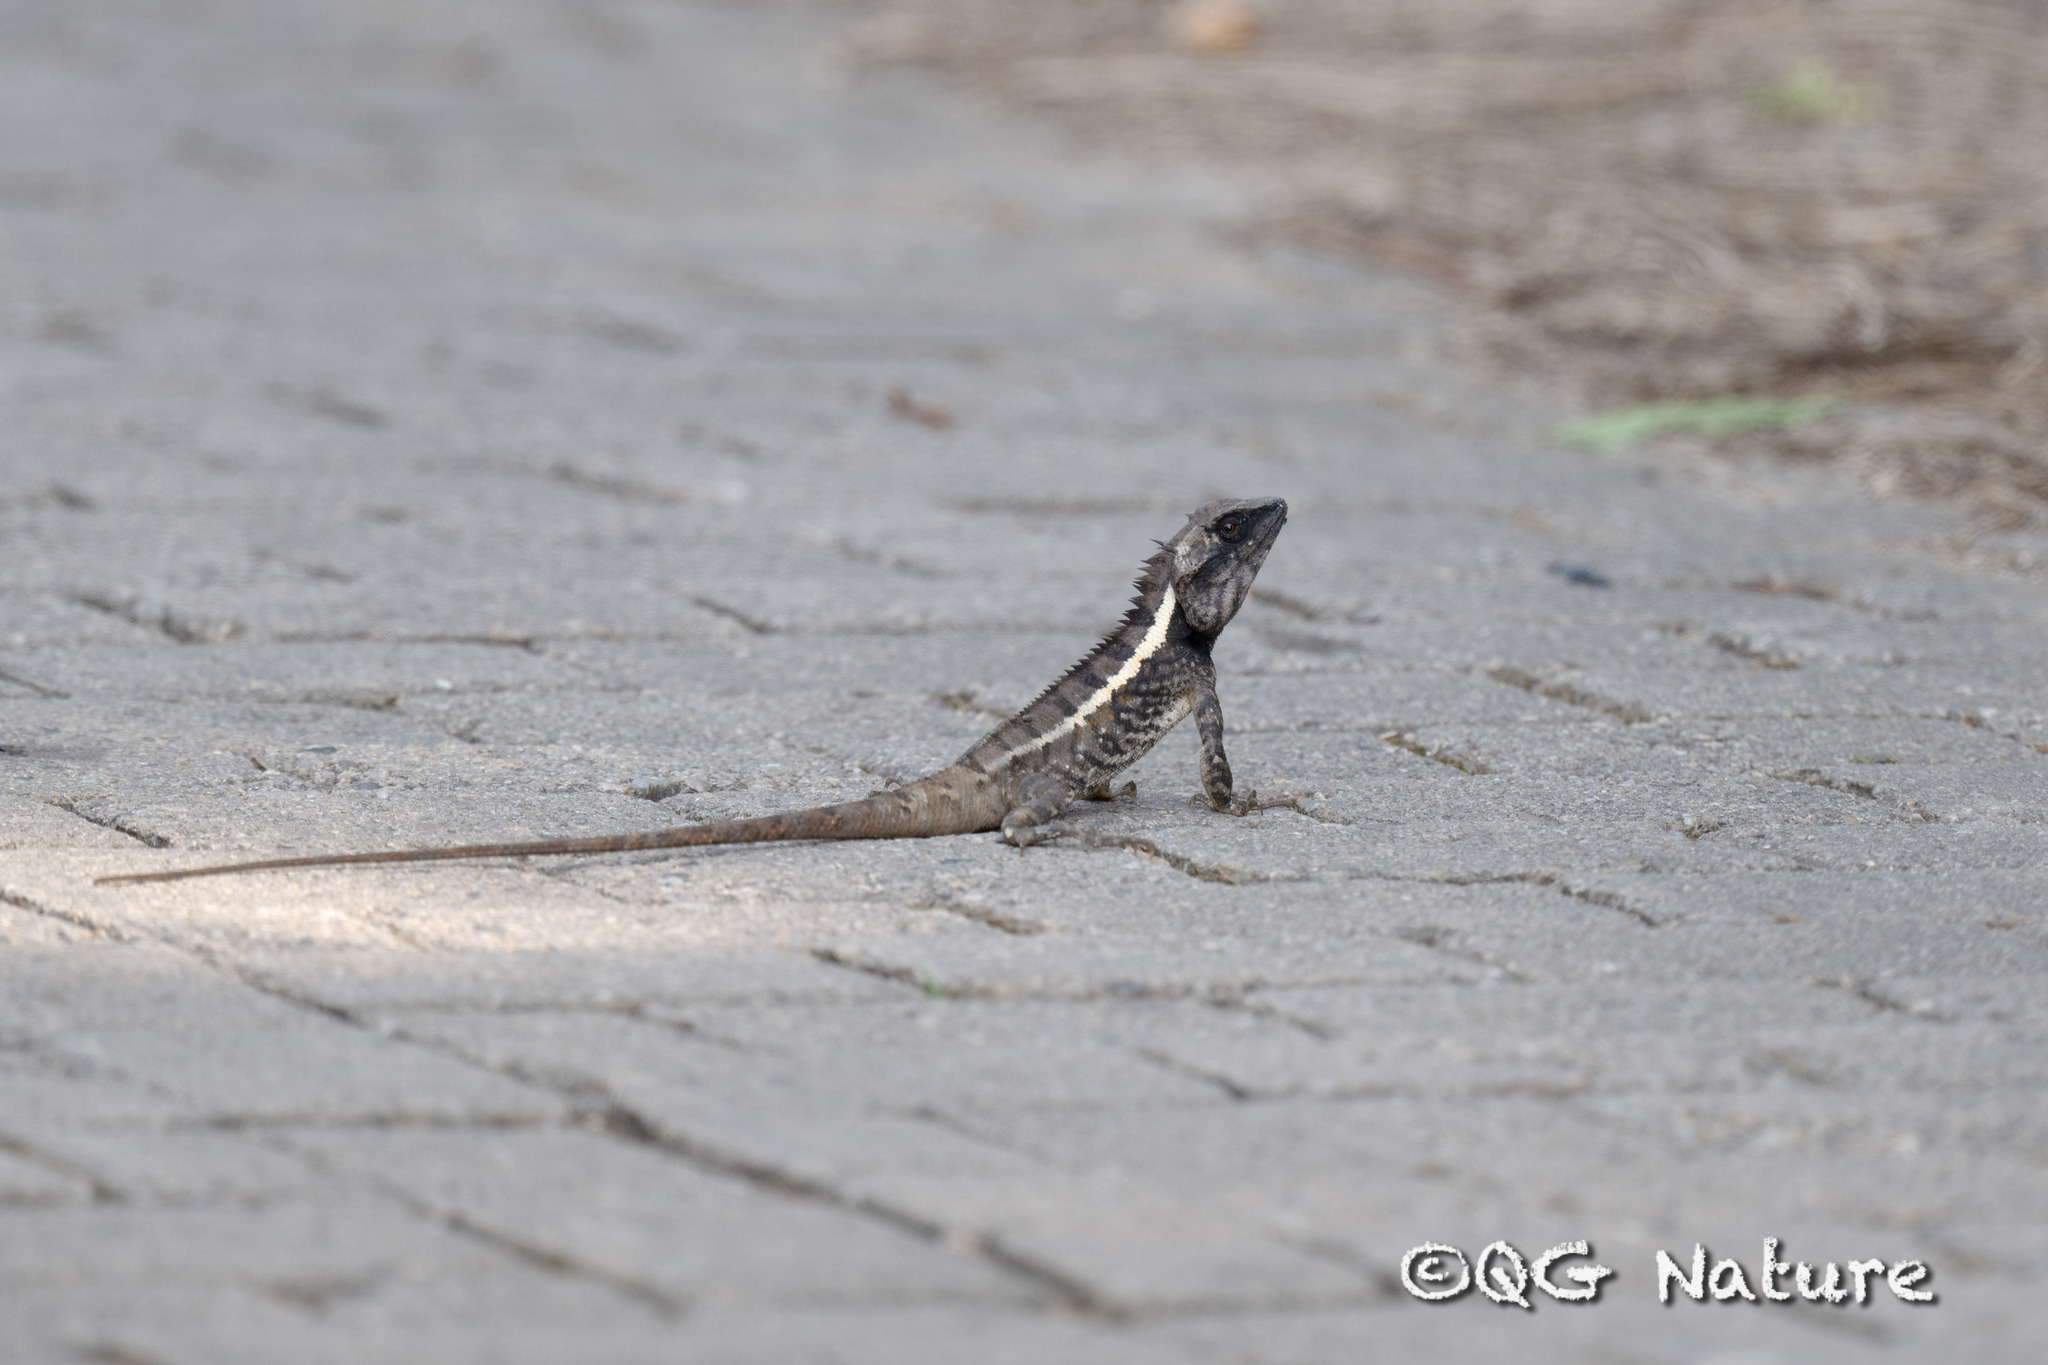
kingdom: Animalia
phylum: Chordata
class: Squamata
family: Agamidae
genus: Calotes
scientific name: Calotes emma
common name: Thailand bloodsucker
